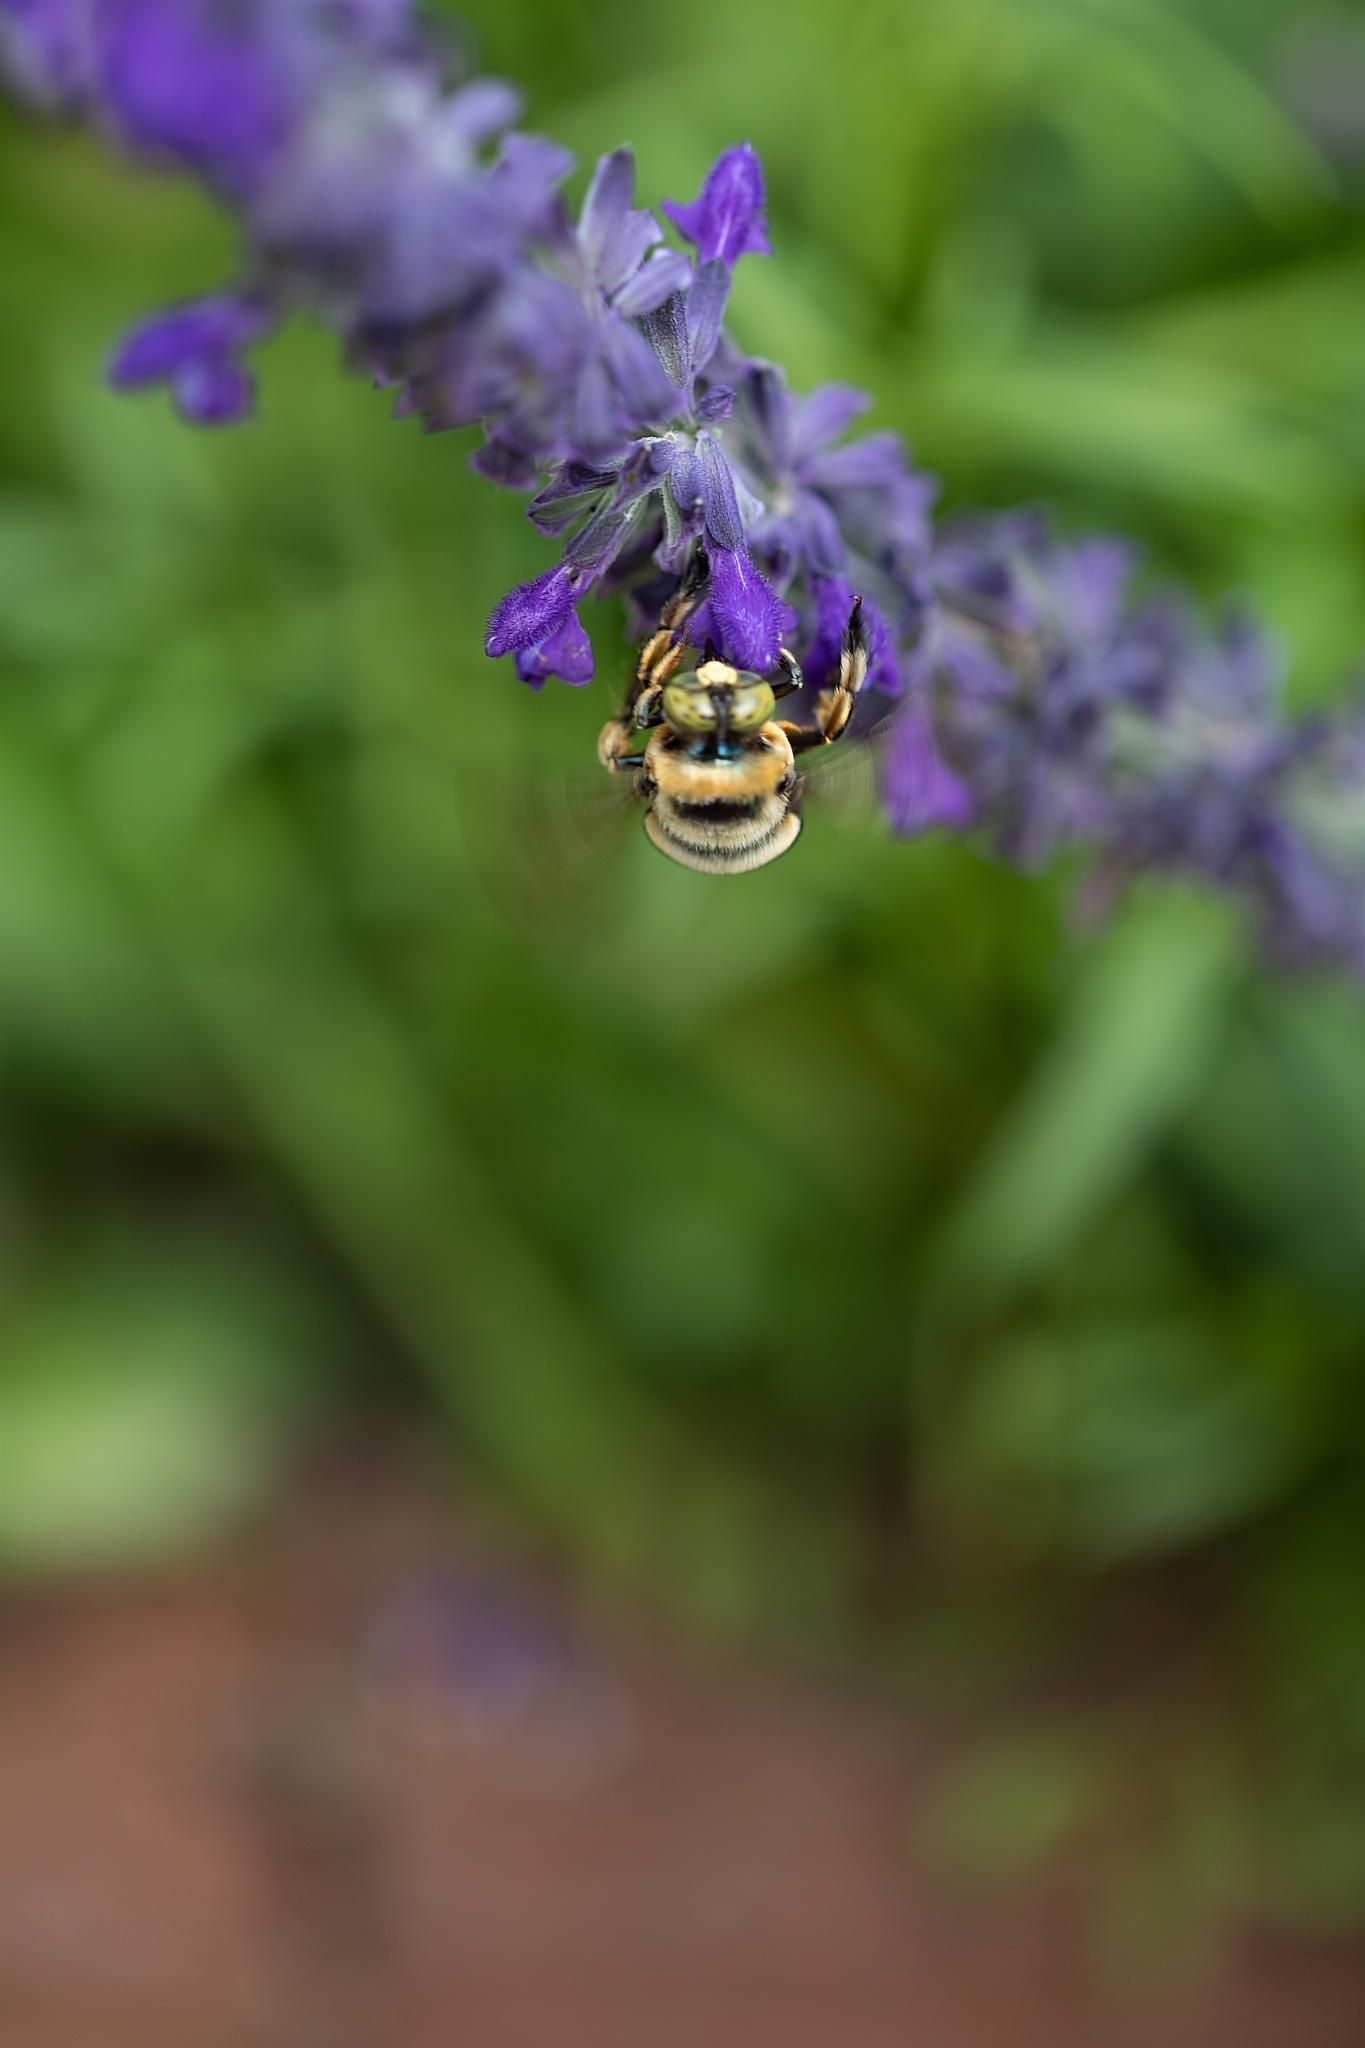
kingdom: Animalia
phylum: Arthropoda
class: Insecta
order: Hymenoptera
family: Apidae
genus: Xylocopa
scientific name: Xylocopa micans
